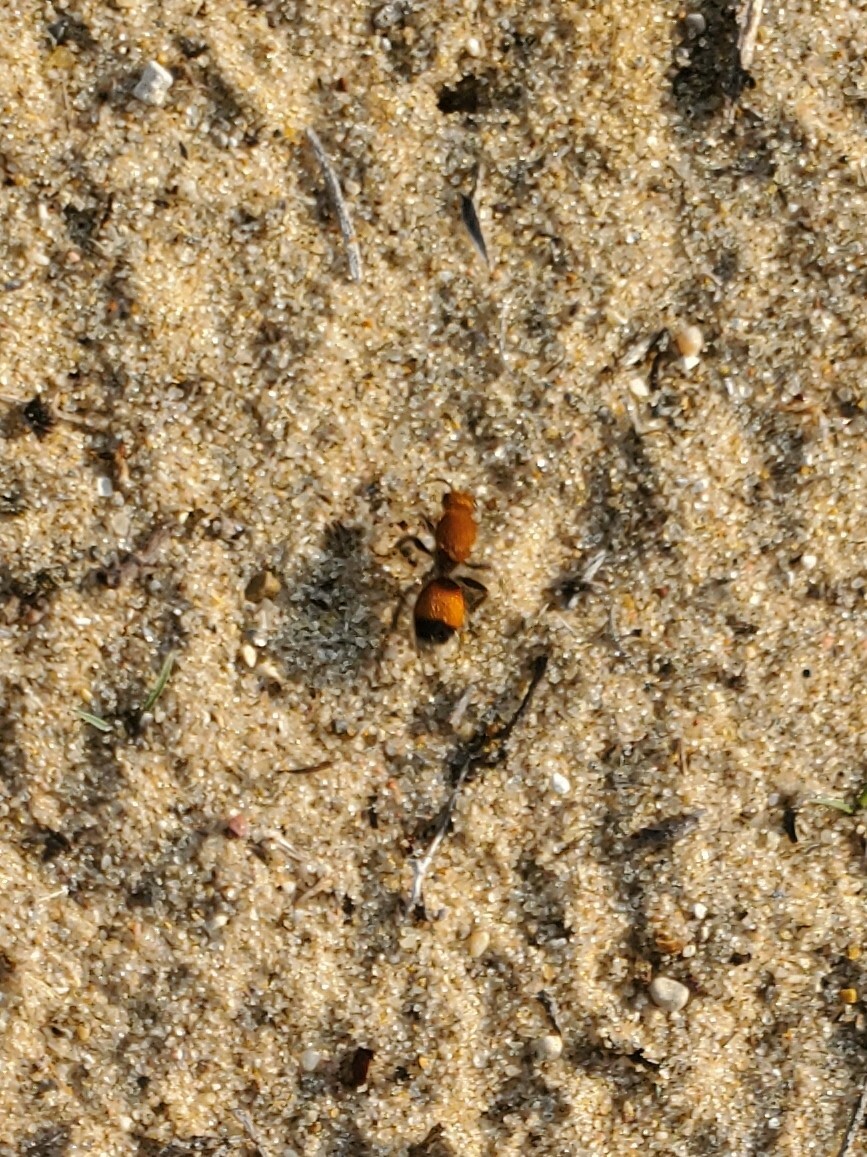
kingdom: Animalia
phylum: Arthropoda
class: Insecta
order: Hymenoptera
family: Mutillidae
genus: Dasymutilla
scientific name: Dasymutilla
